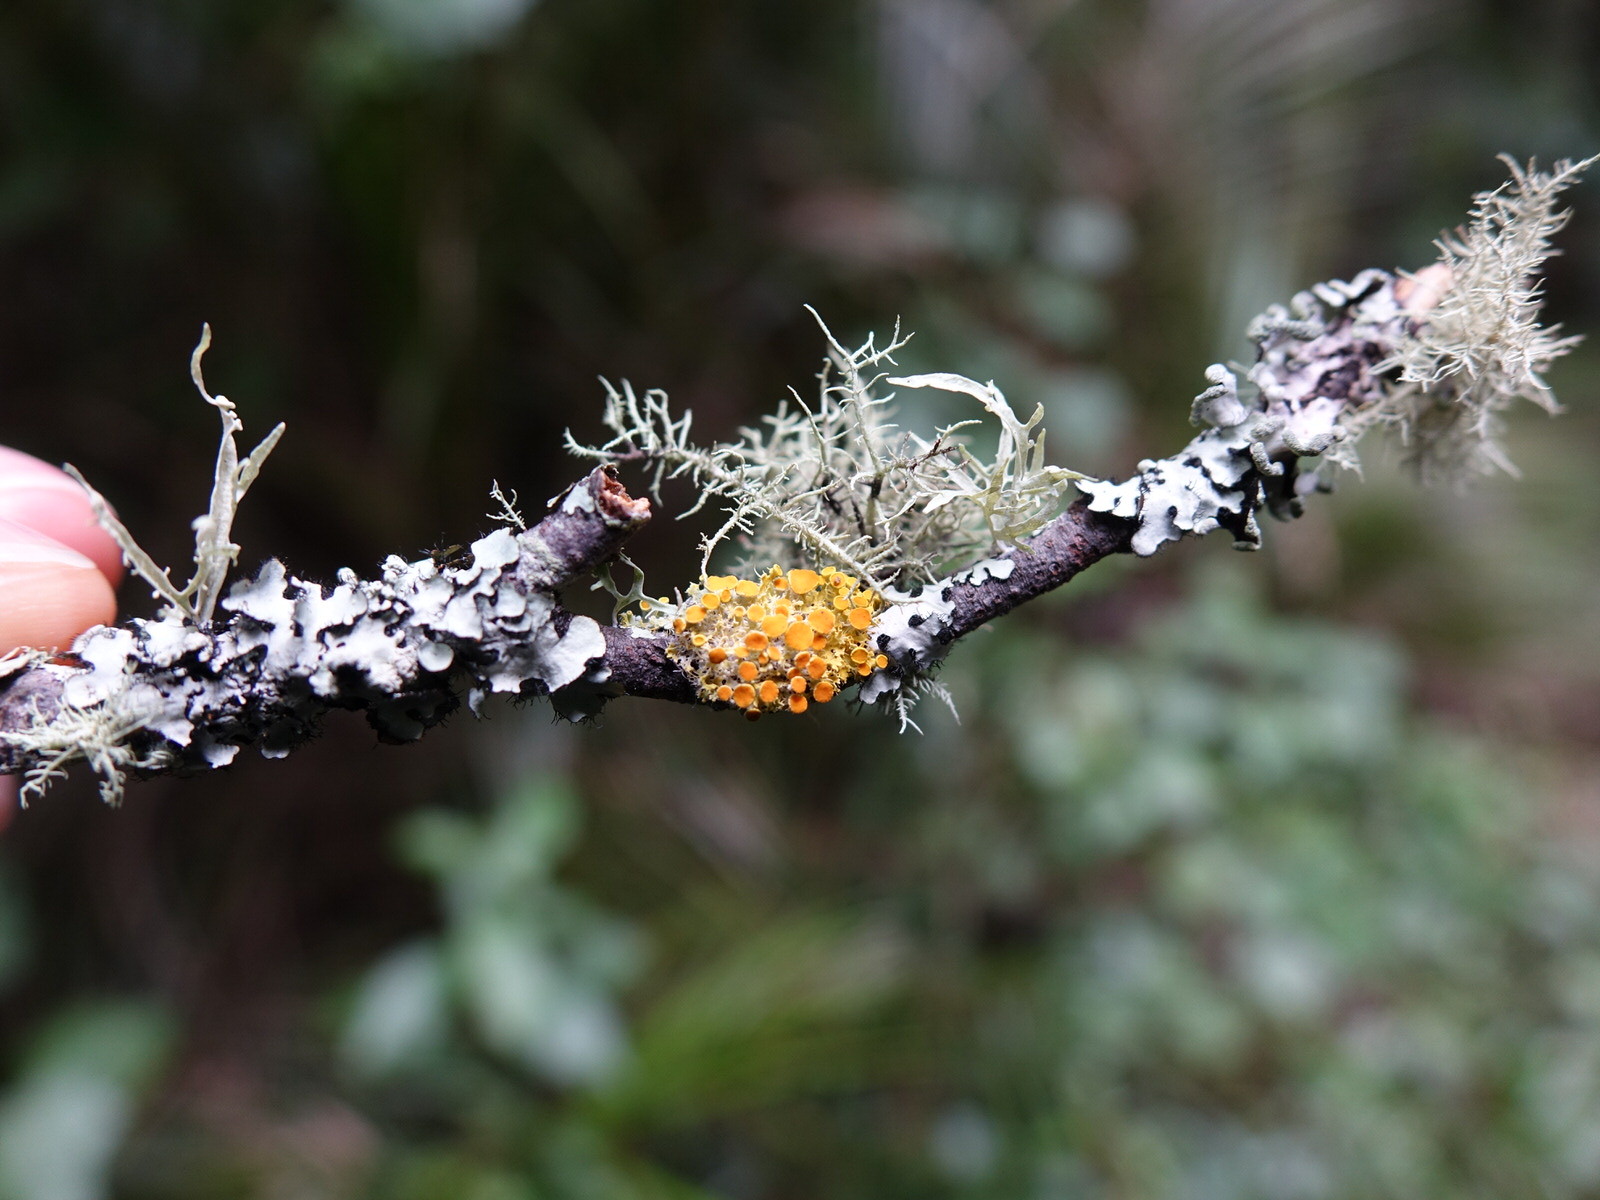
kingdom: Fungi
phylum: Ascomycota
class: Lecanoromycetes
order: Teloschistales
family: Teloschistaceae
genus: Niorma
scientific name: Niorma chrysophthalma
